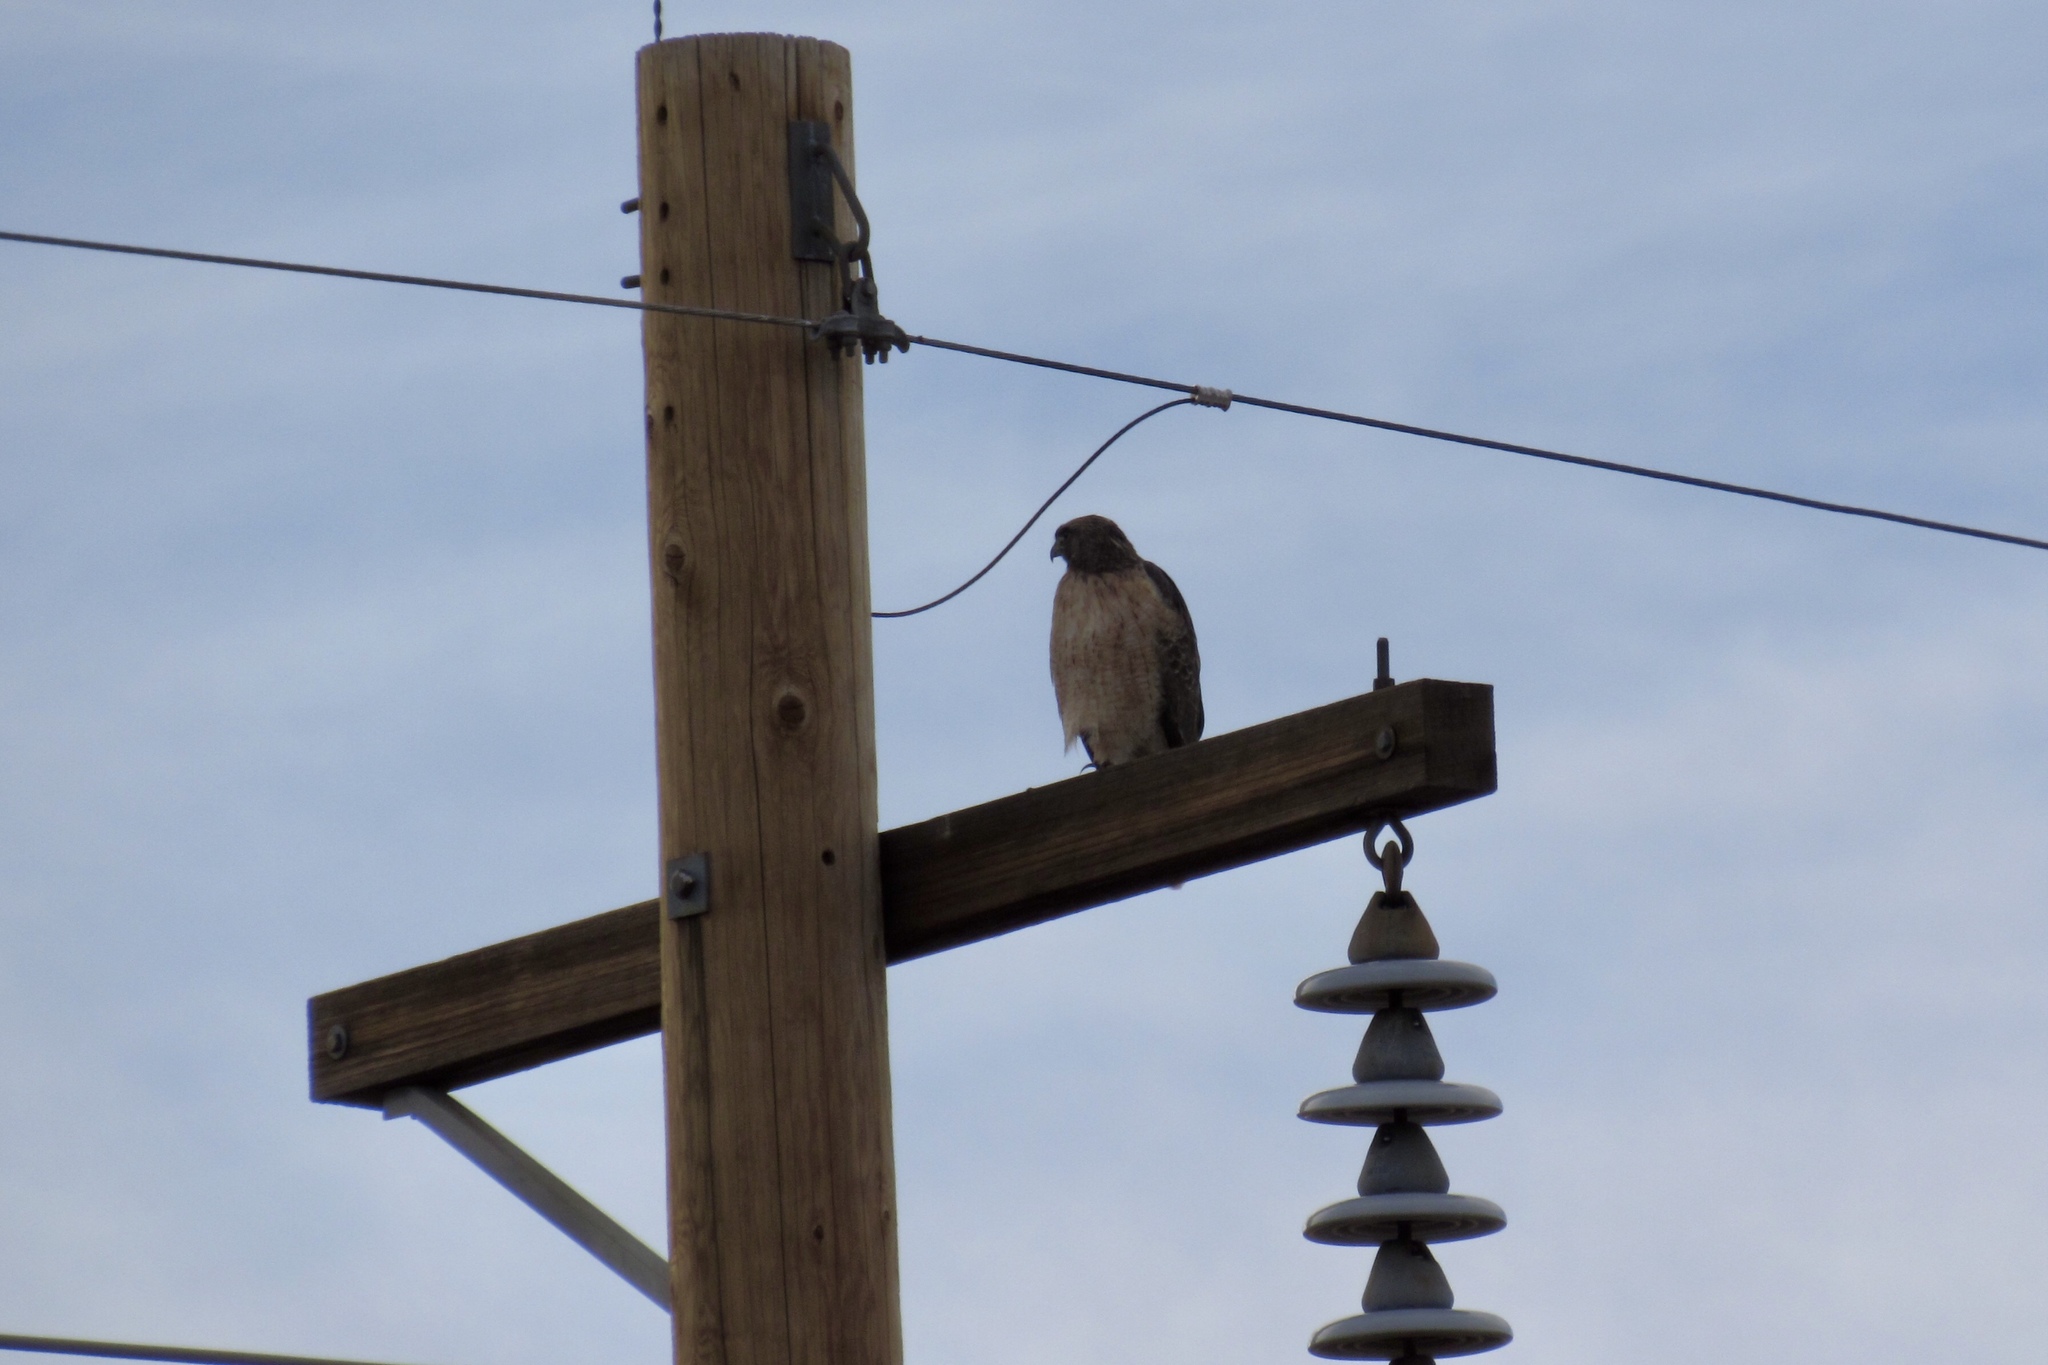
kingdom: Animalia
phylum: Chordata
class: Aves
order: Accipitriformes
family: Accipitridae
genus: Buteo
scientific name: Buteo jamaicensis
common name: Red-tailed hawk
